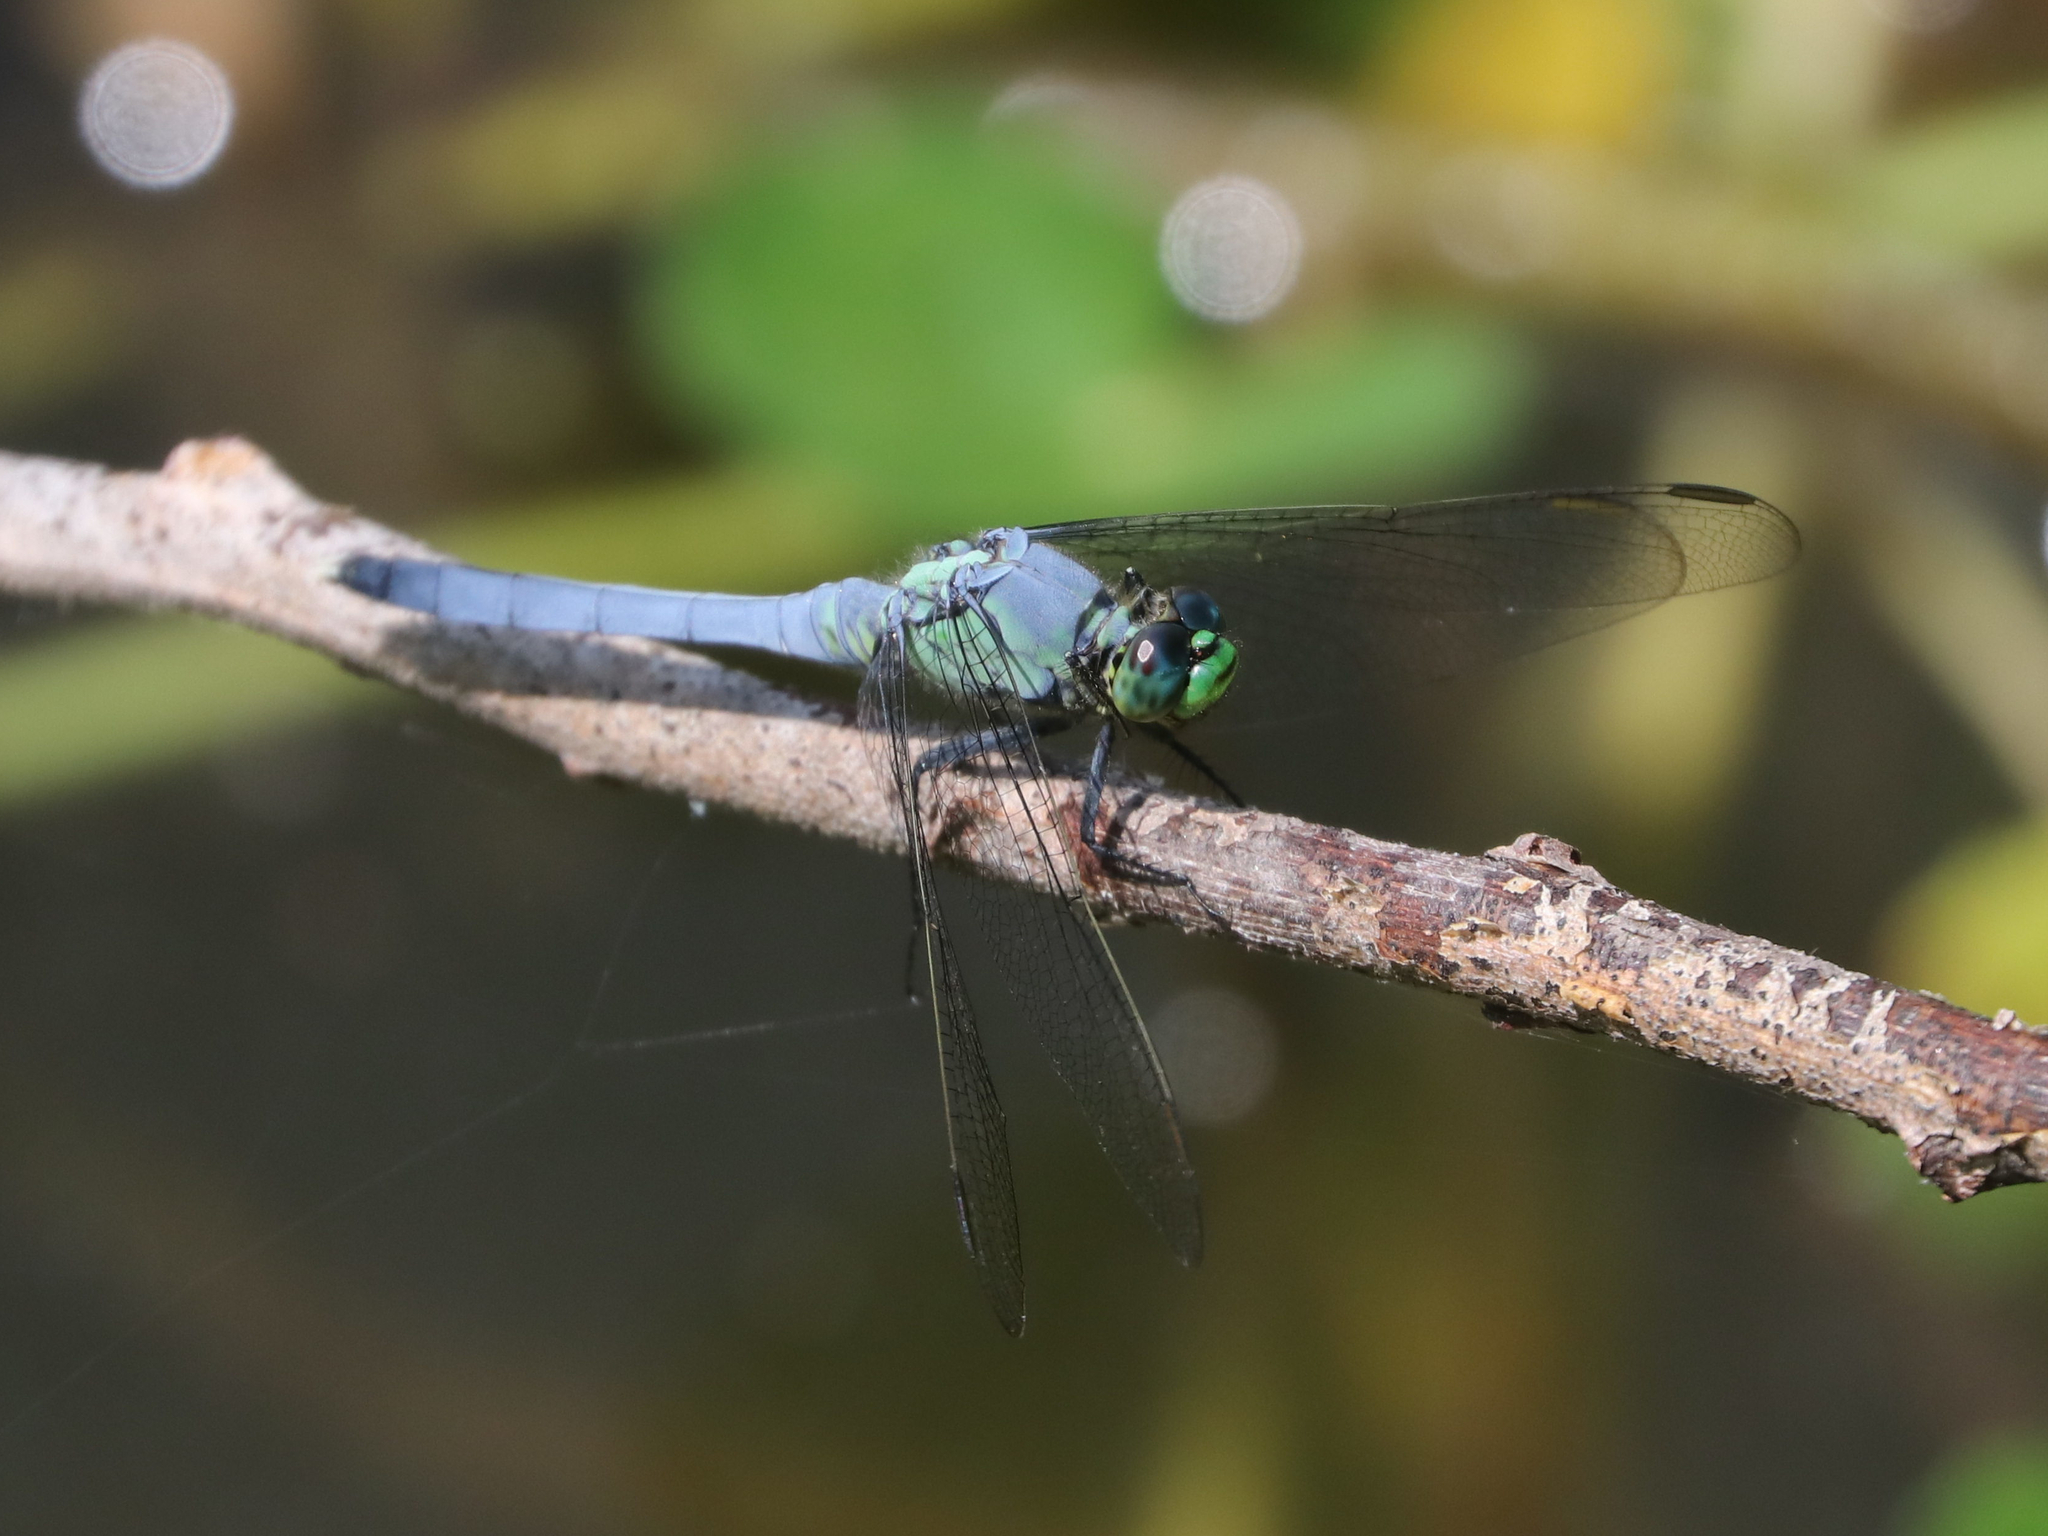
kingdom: Animalia
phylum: Arthropoda
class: Insecta
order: Odonata
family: Libellulidae
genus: Erythemis
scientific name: Erythemis simplicicollis
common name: Eastern pondhawk
